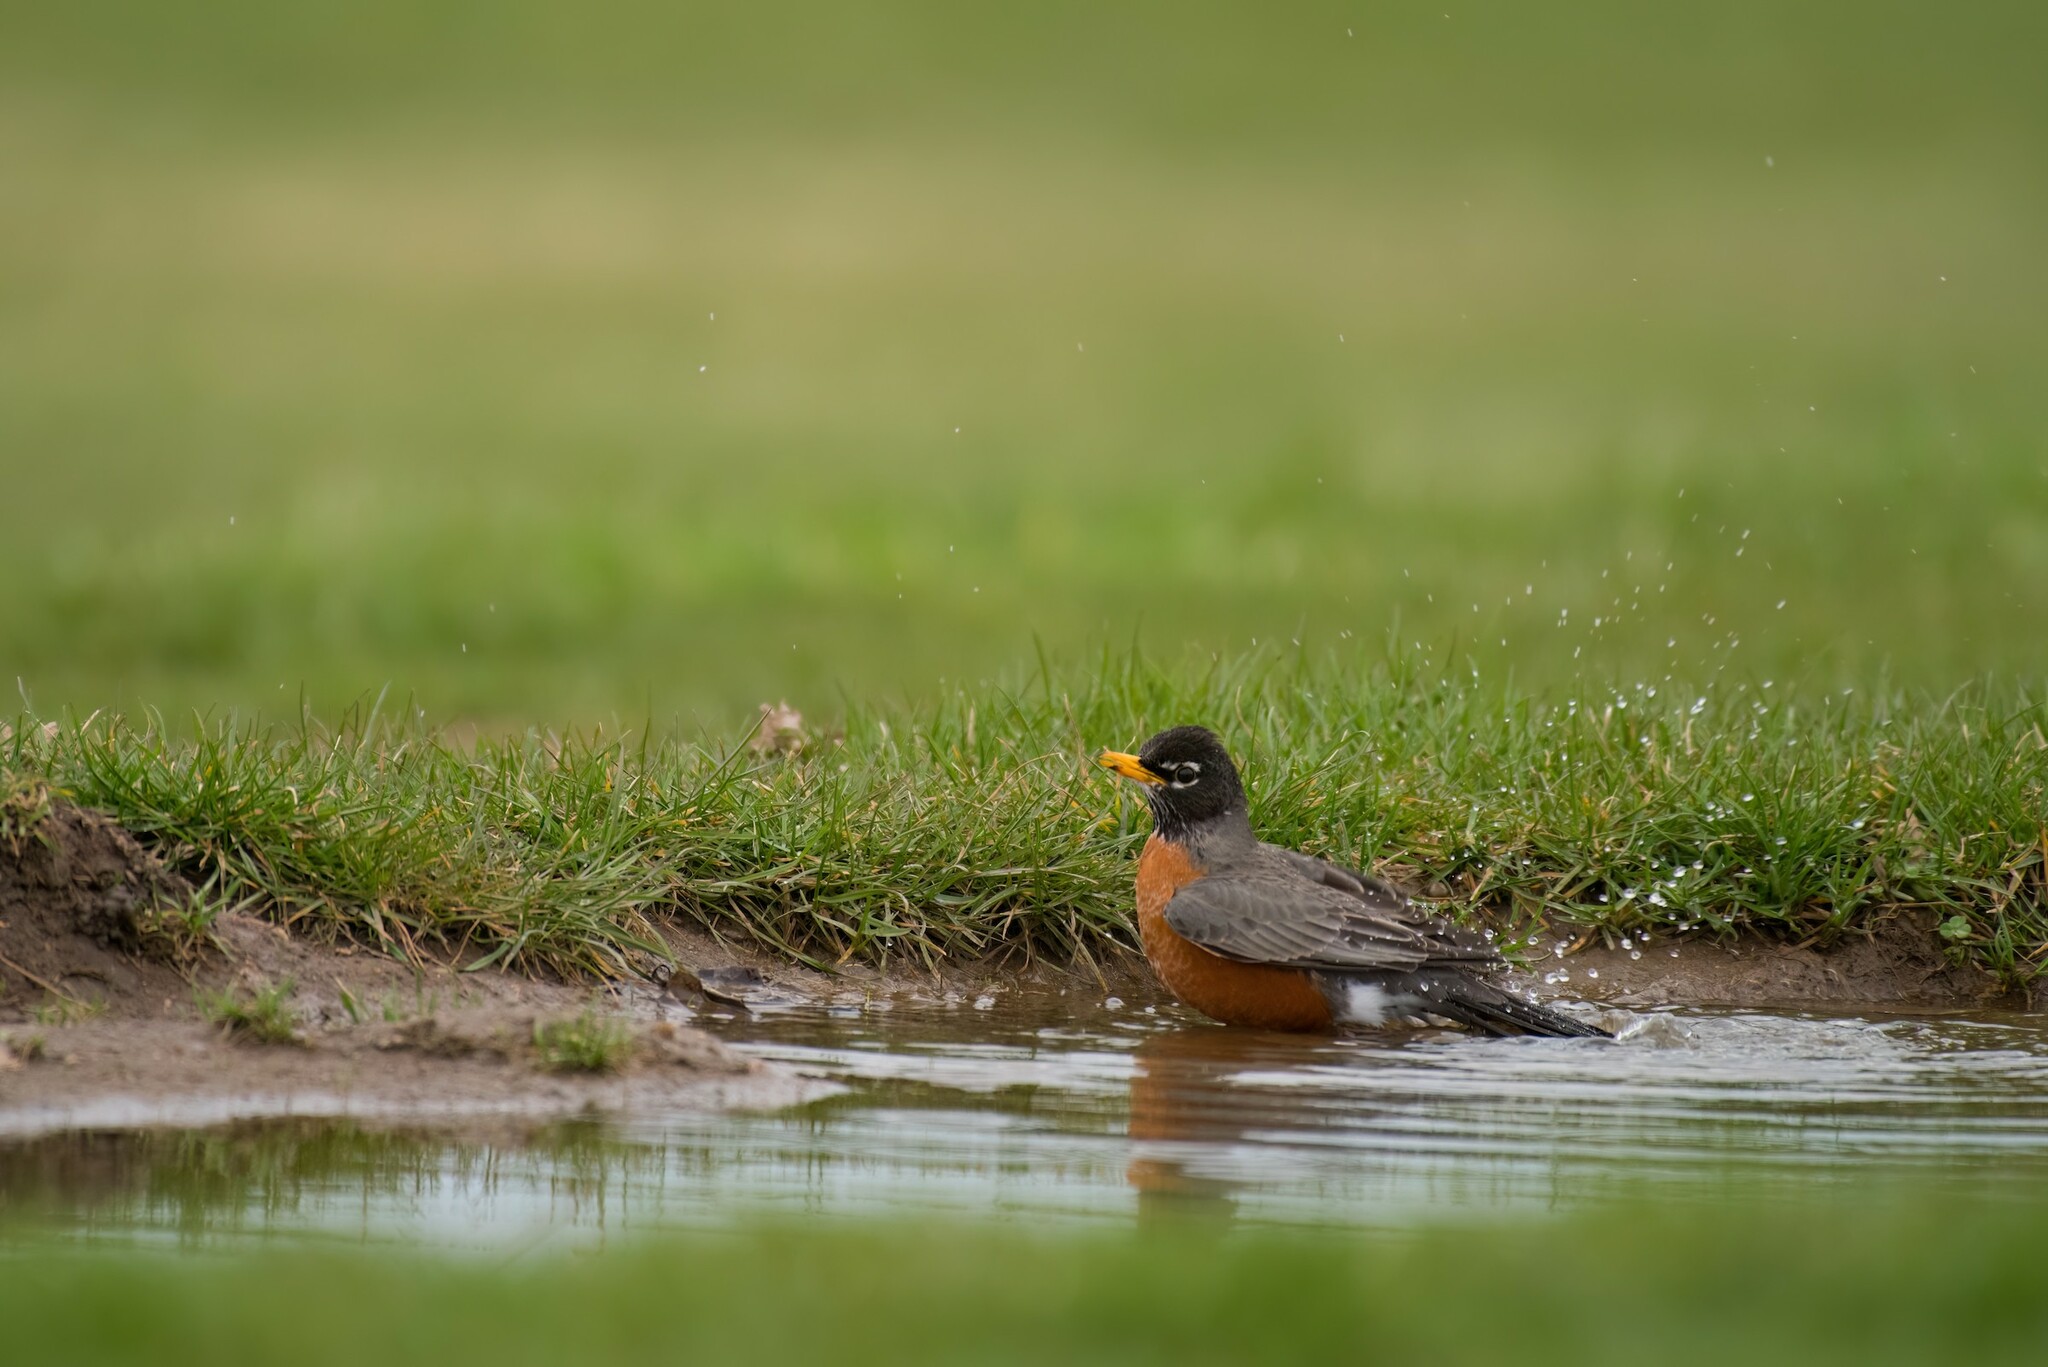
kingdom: Animalia
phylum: Chordata
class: Aves
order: Passeriformes
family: Turdidae
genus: Turdus
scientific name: Turdus migratorius
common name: American robin
